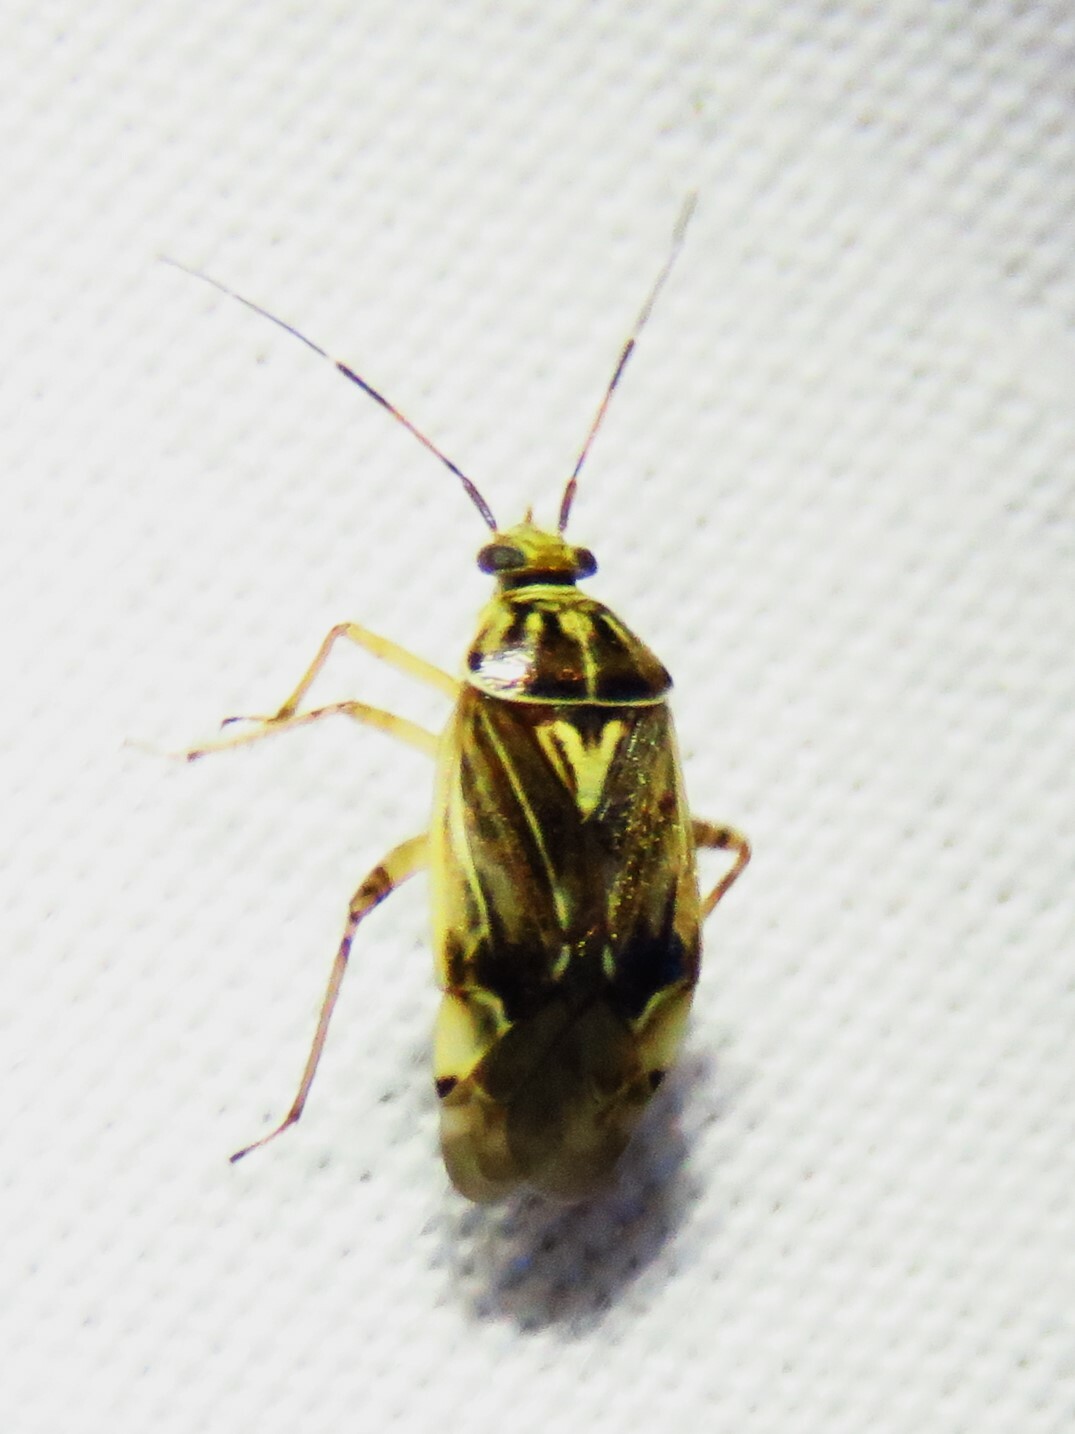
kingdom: Animalia
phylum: Arthropoda
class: Insecta
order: Hemiptera
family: Miridae
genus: Lygus
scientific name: Lygus lineolaris
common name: North american tarnished plant bug
